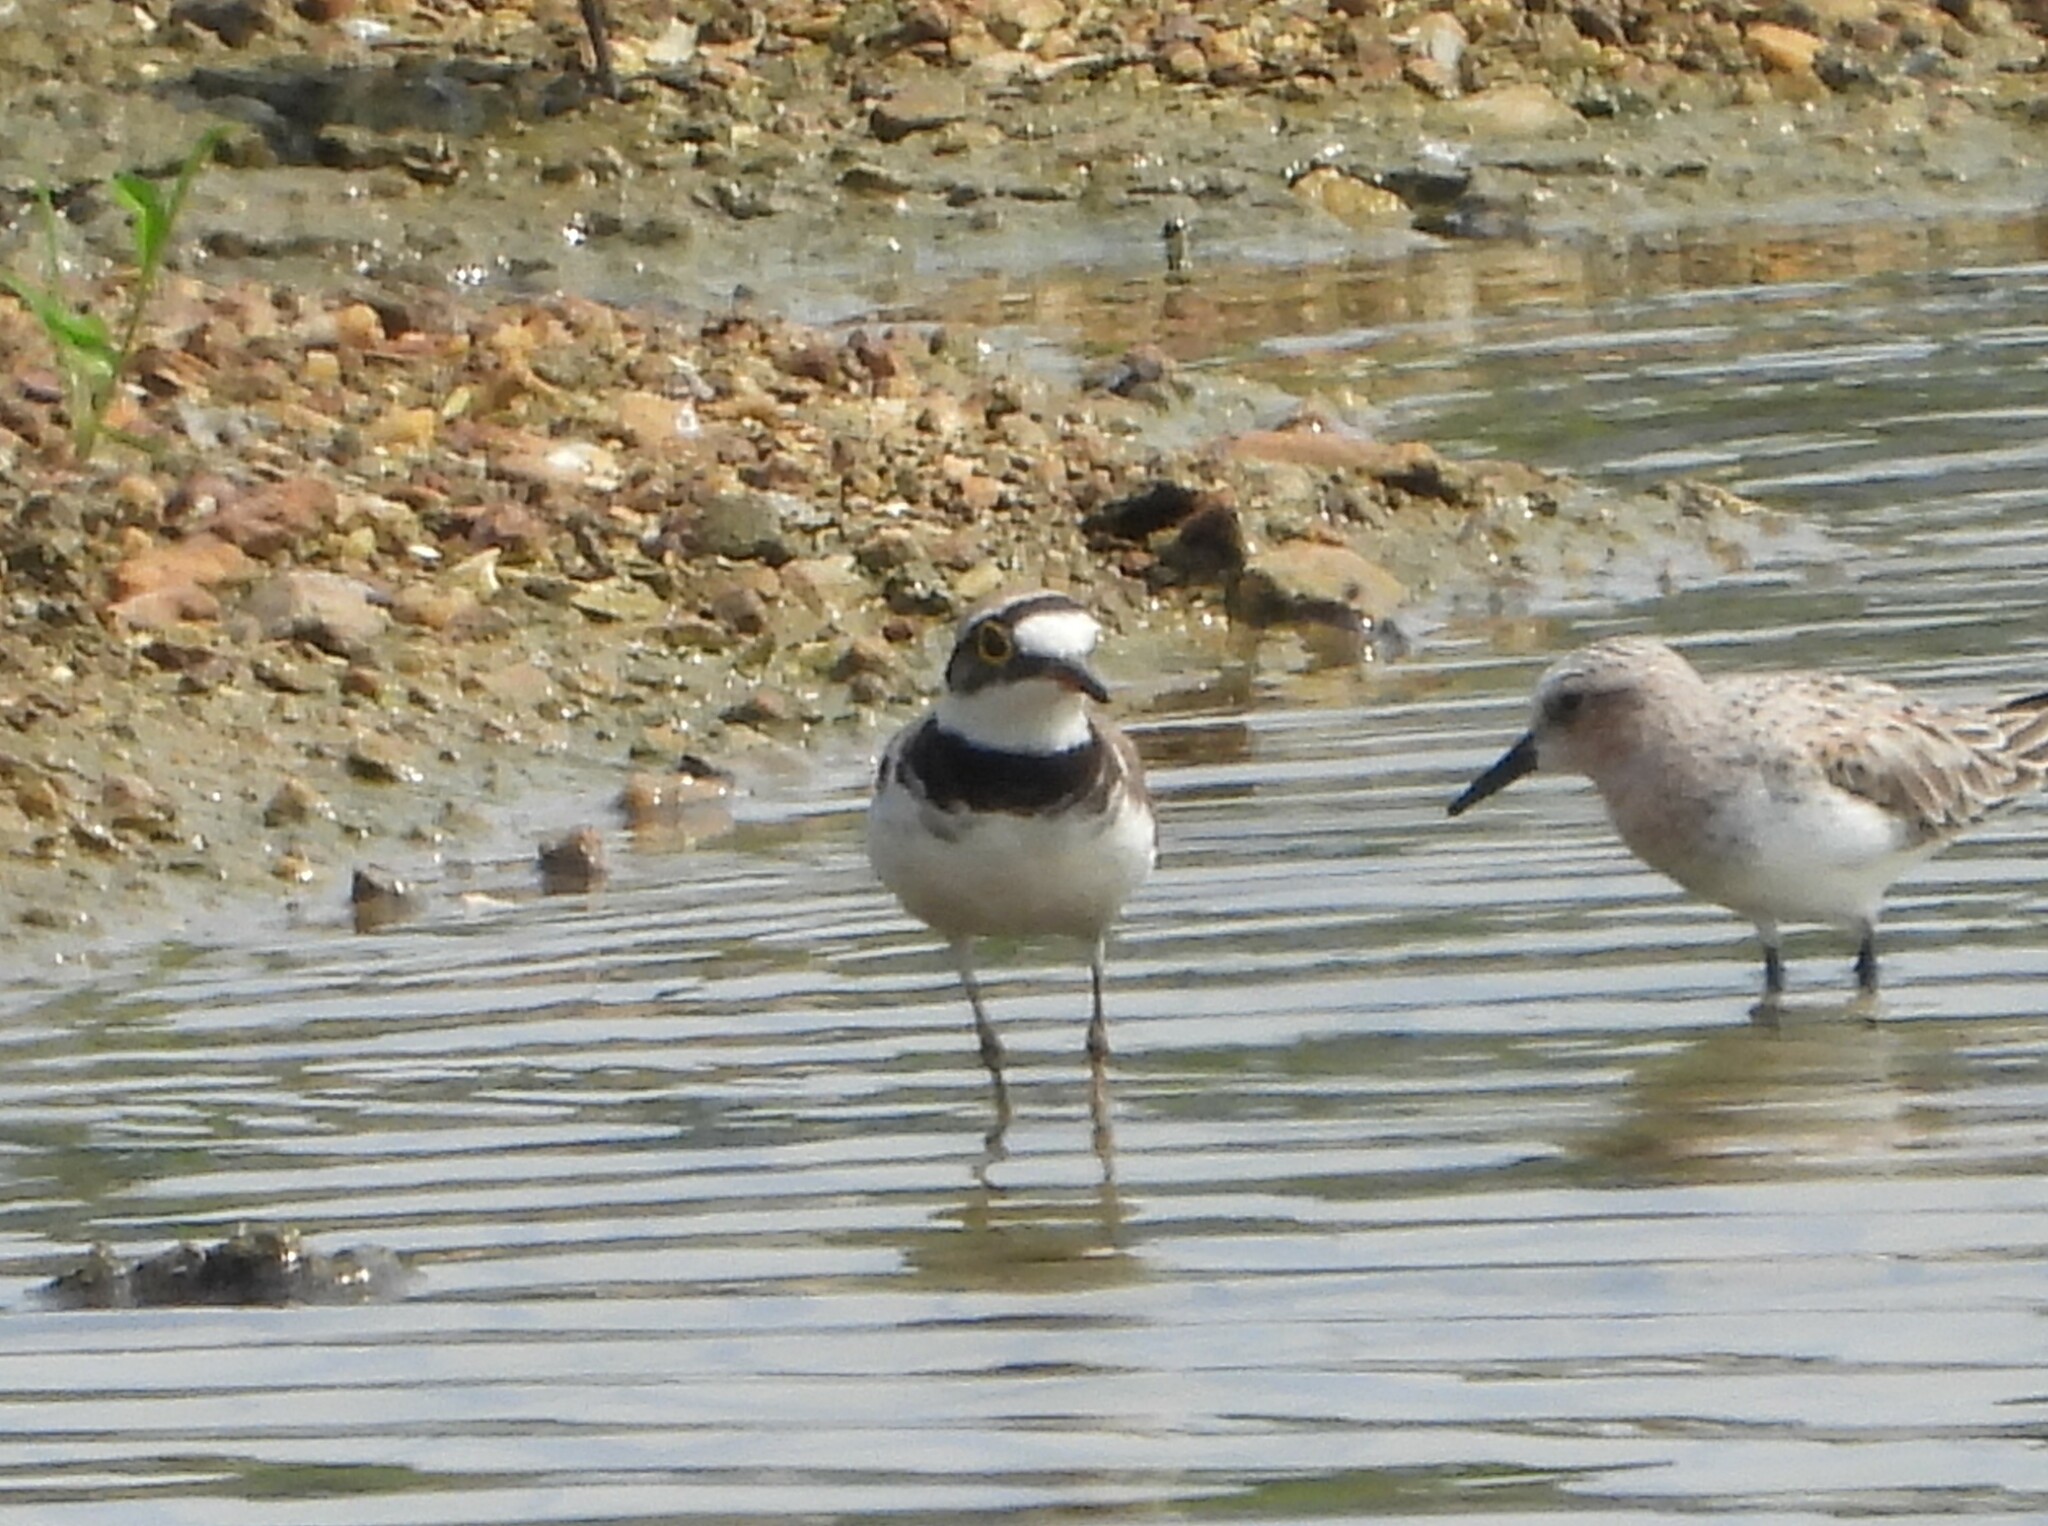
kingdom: Animalia
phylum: Chordata
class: Aves
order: Charadriiformes
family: Charadriidae
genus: Charadrius
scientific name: Charadrius dubius
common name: Little ringed plover
